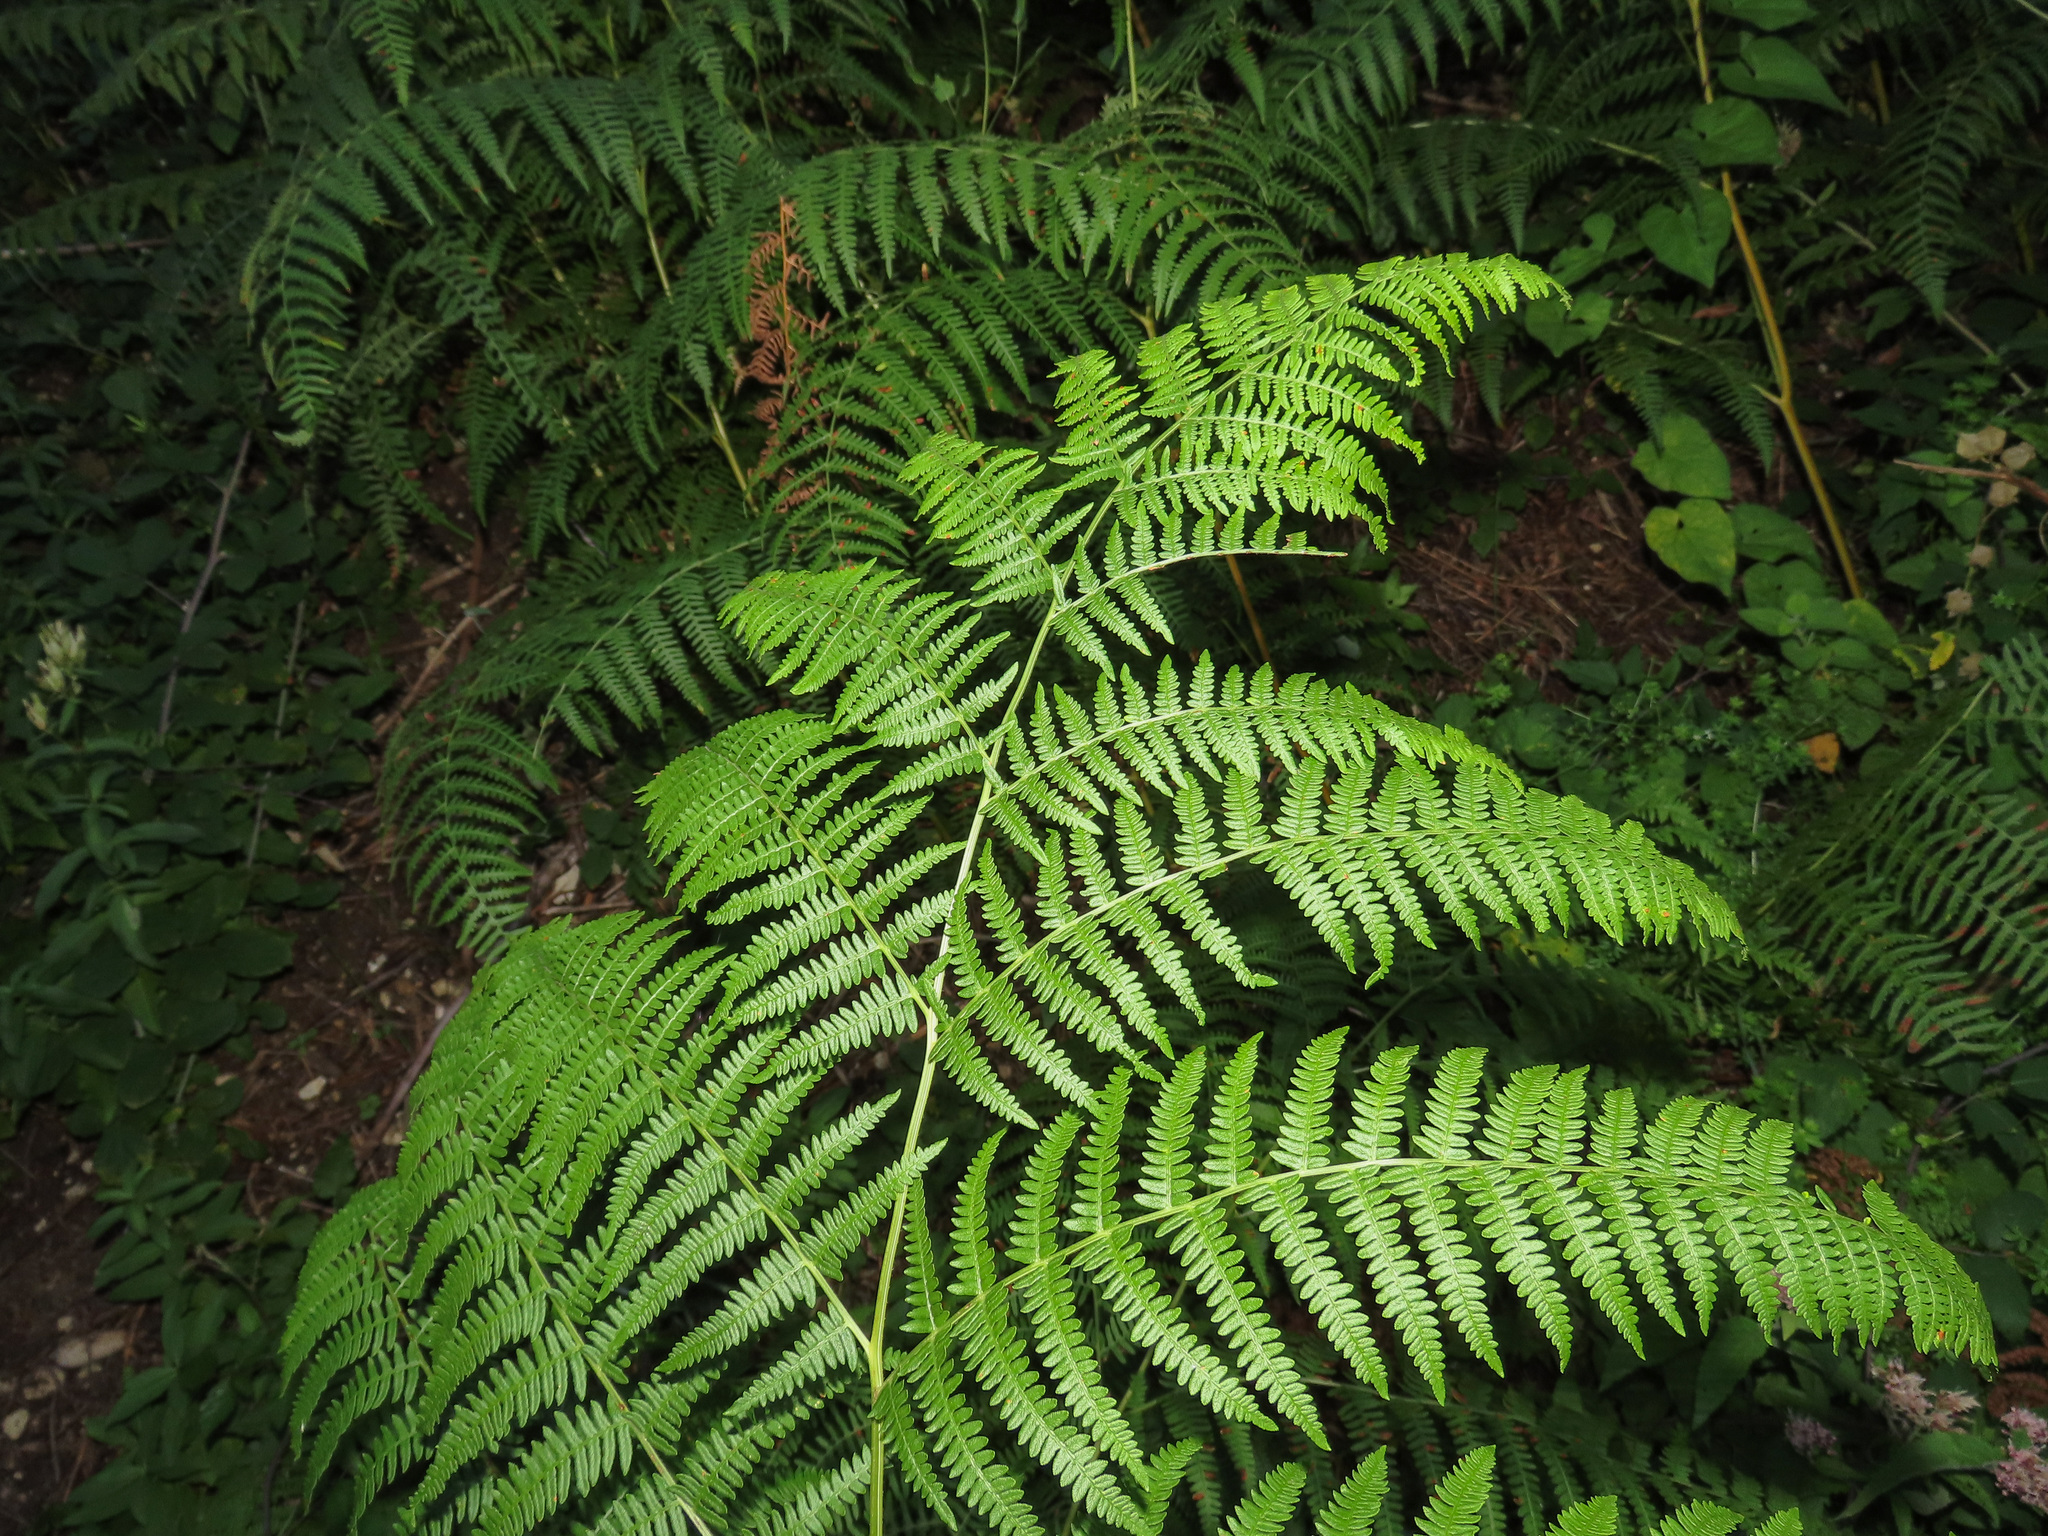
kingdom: Plantae
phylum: Tracheophyta
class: Polypodiopsida
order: Polypodiales
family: Dennstaedtiaceae
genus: Pteridium
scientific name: Pteridium aquilinum
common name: Bracken
